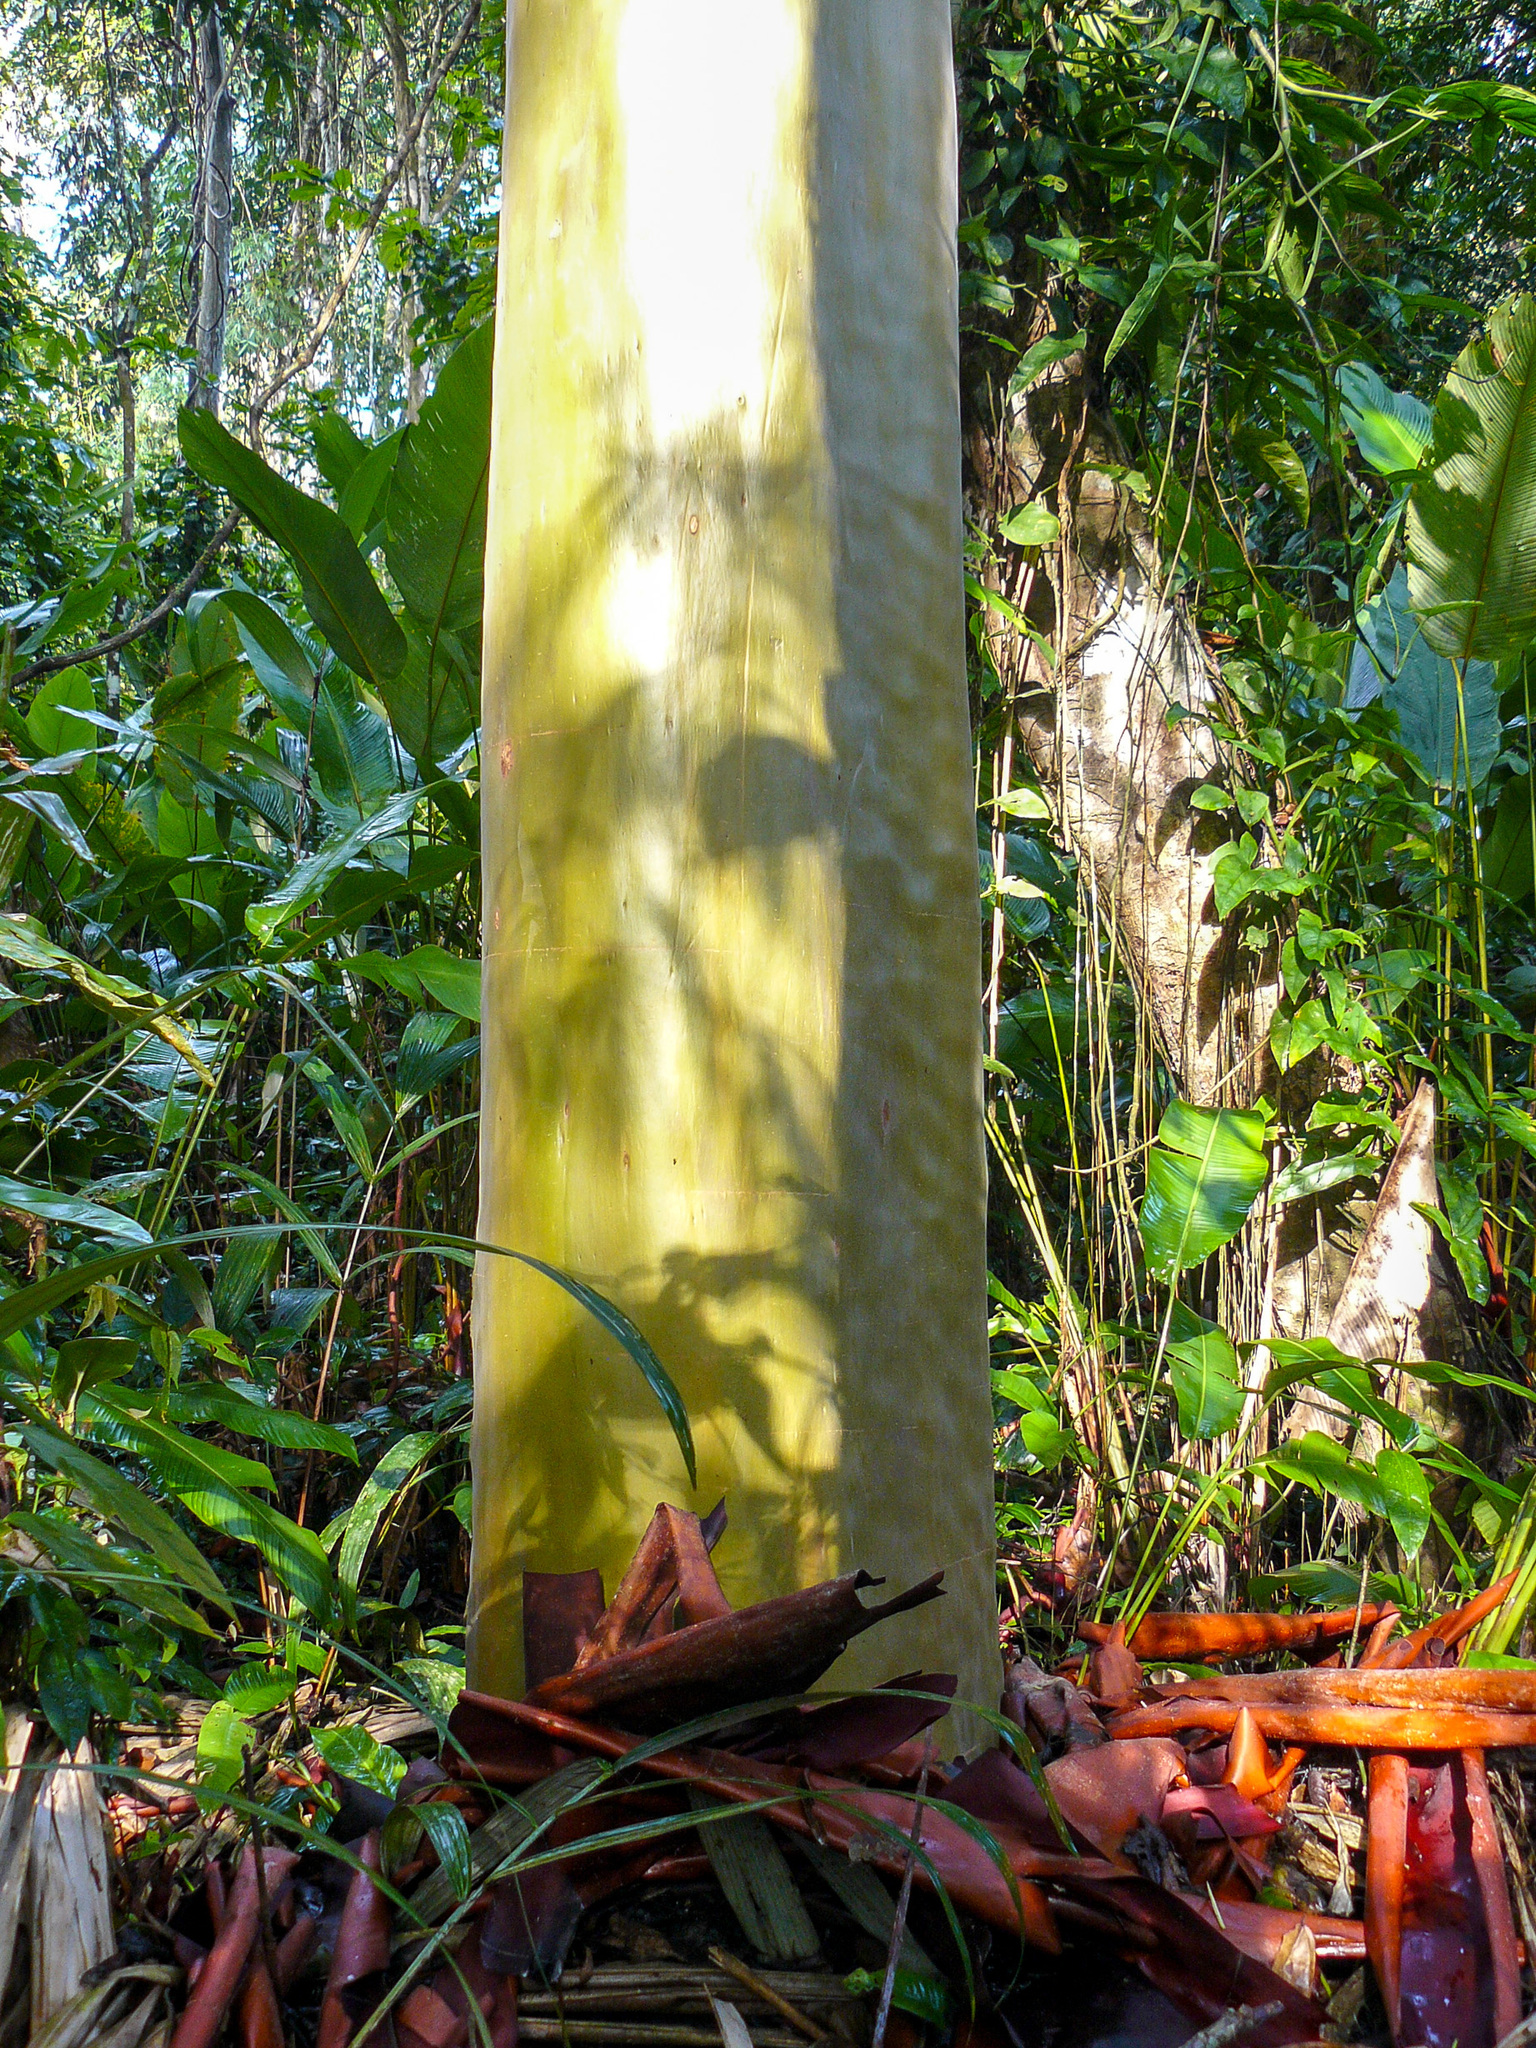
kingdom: Plantae
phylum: Tracheophyta
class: Magnoliopsida
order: Gentianales
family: Rubiaceae
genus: Calycophyllum
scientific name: Calycophyllum spruceanum
